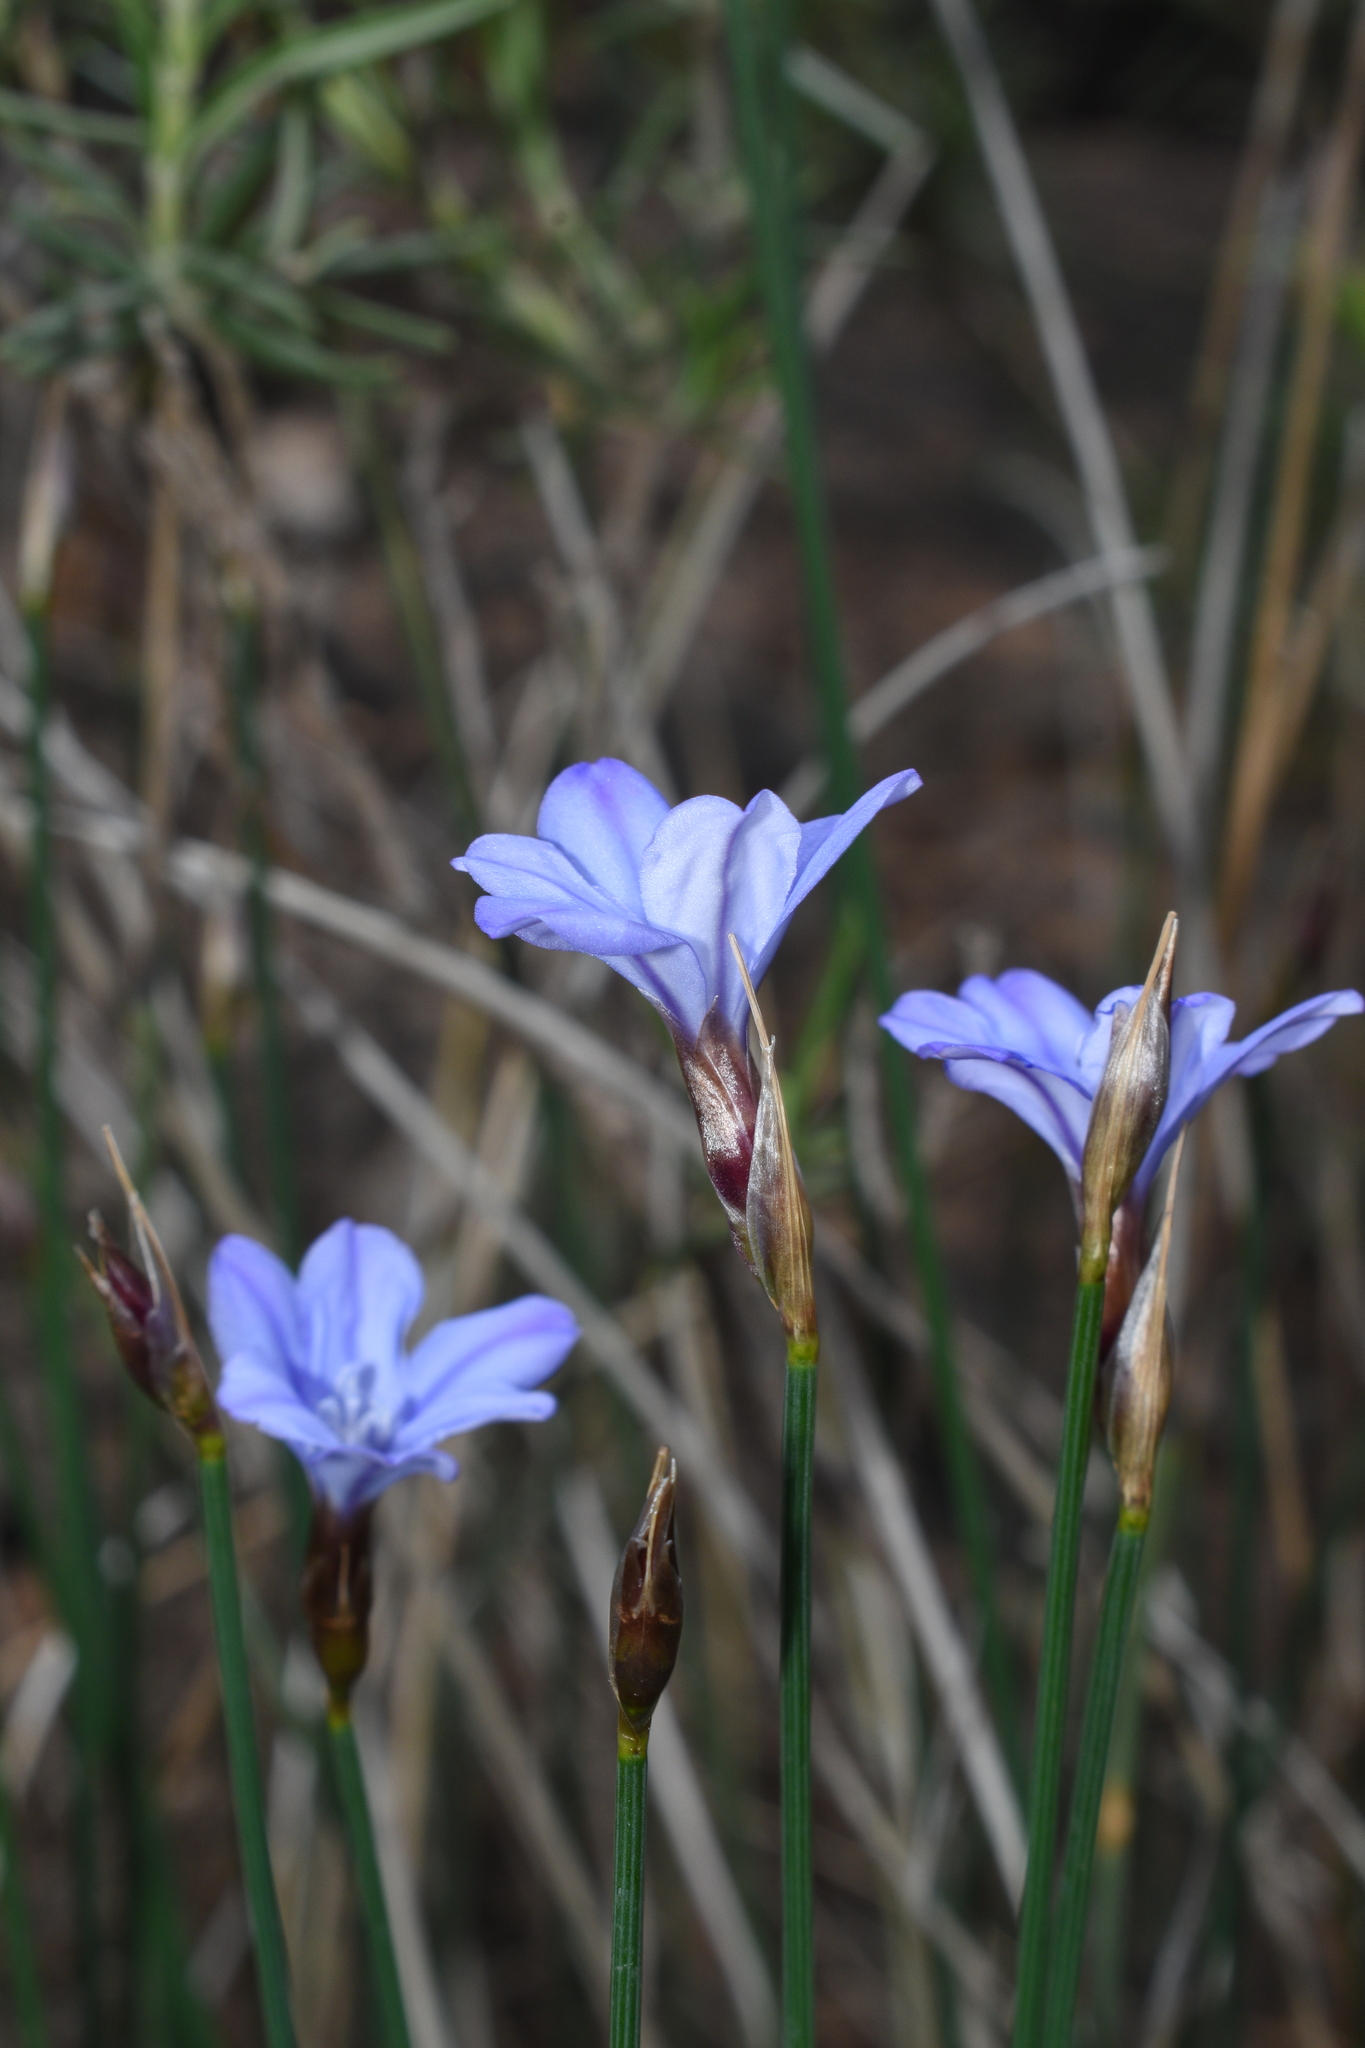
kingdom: Plantae
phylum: Tracheophyta
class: Liliopsida
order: Asparagales
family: Asparagaceae
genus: Aphyllanthes
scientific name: Aphyllanthes monspeliensis
